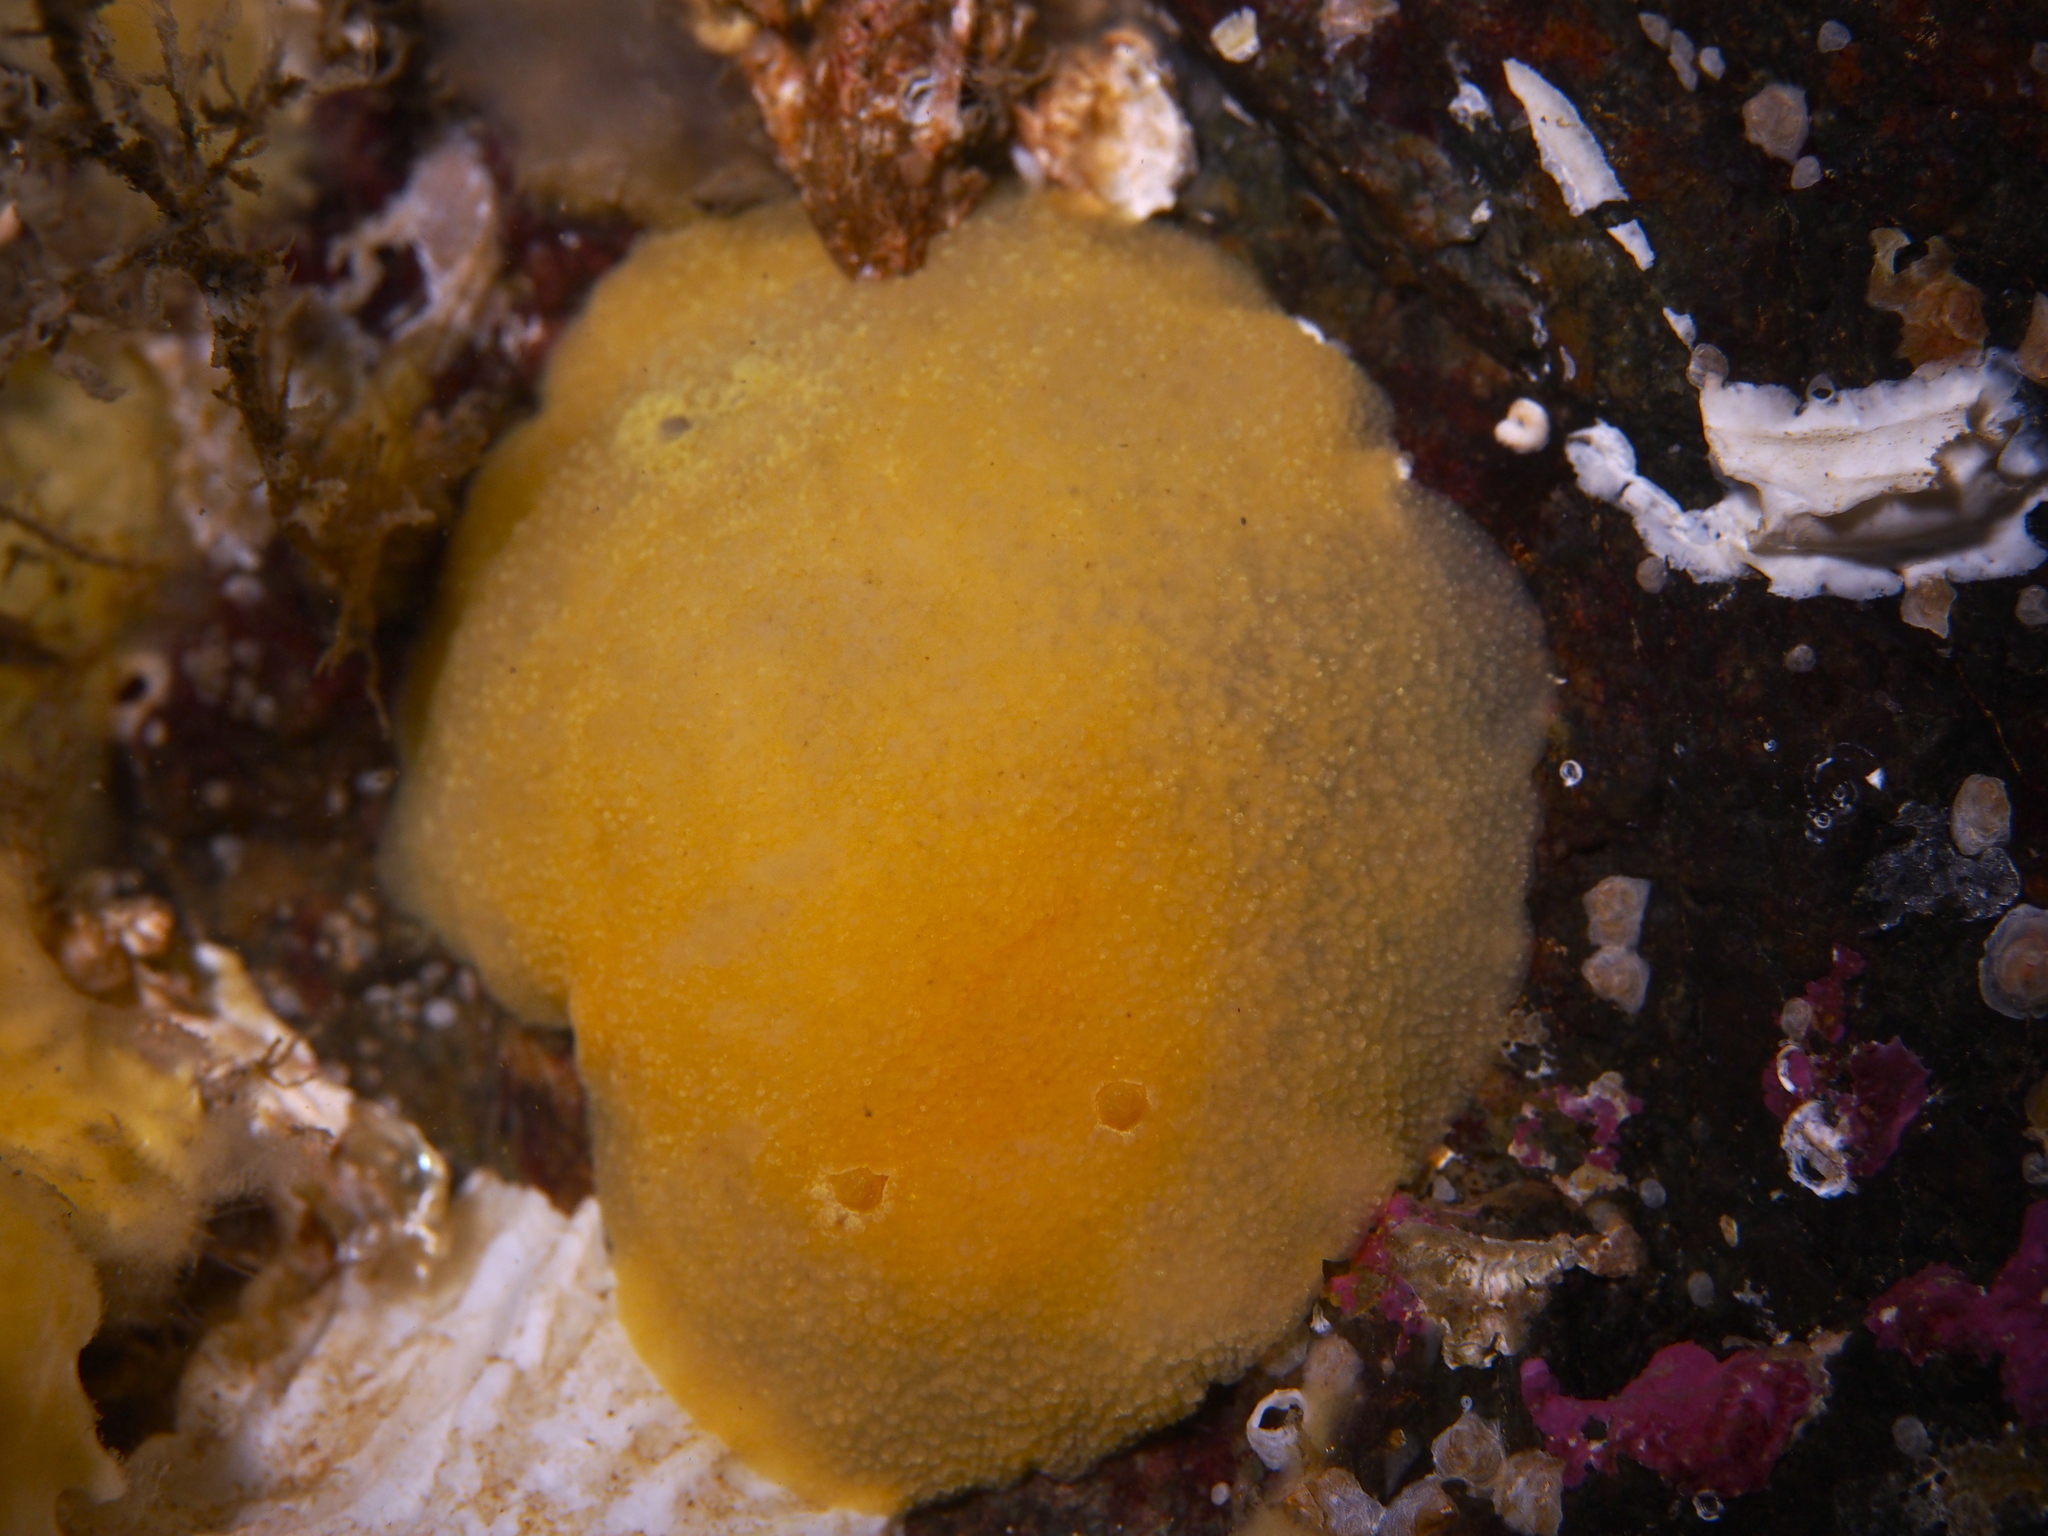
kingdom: Animalia
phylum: Mollusca
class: Gastropoda
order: Nudibranchia
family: Dorididae
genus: Doris
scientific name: Doris pseudoargus
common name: Sea lemon
